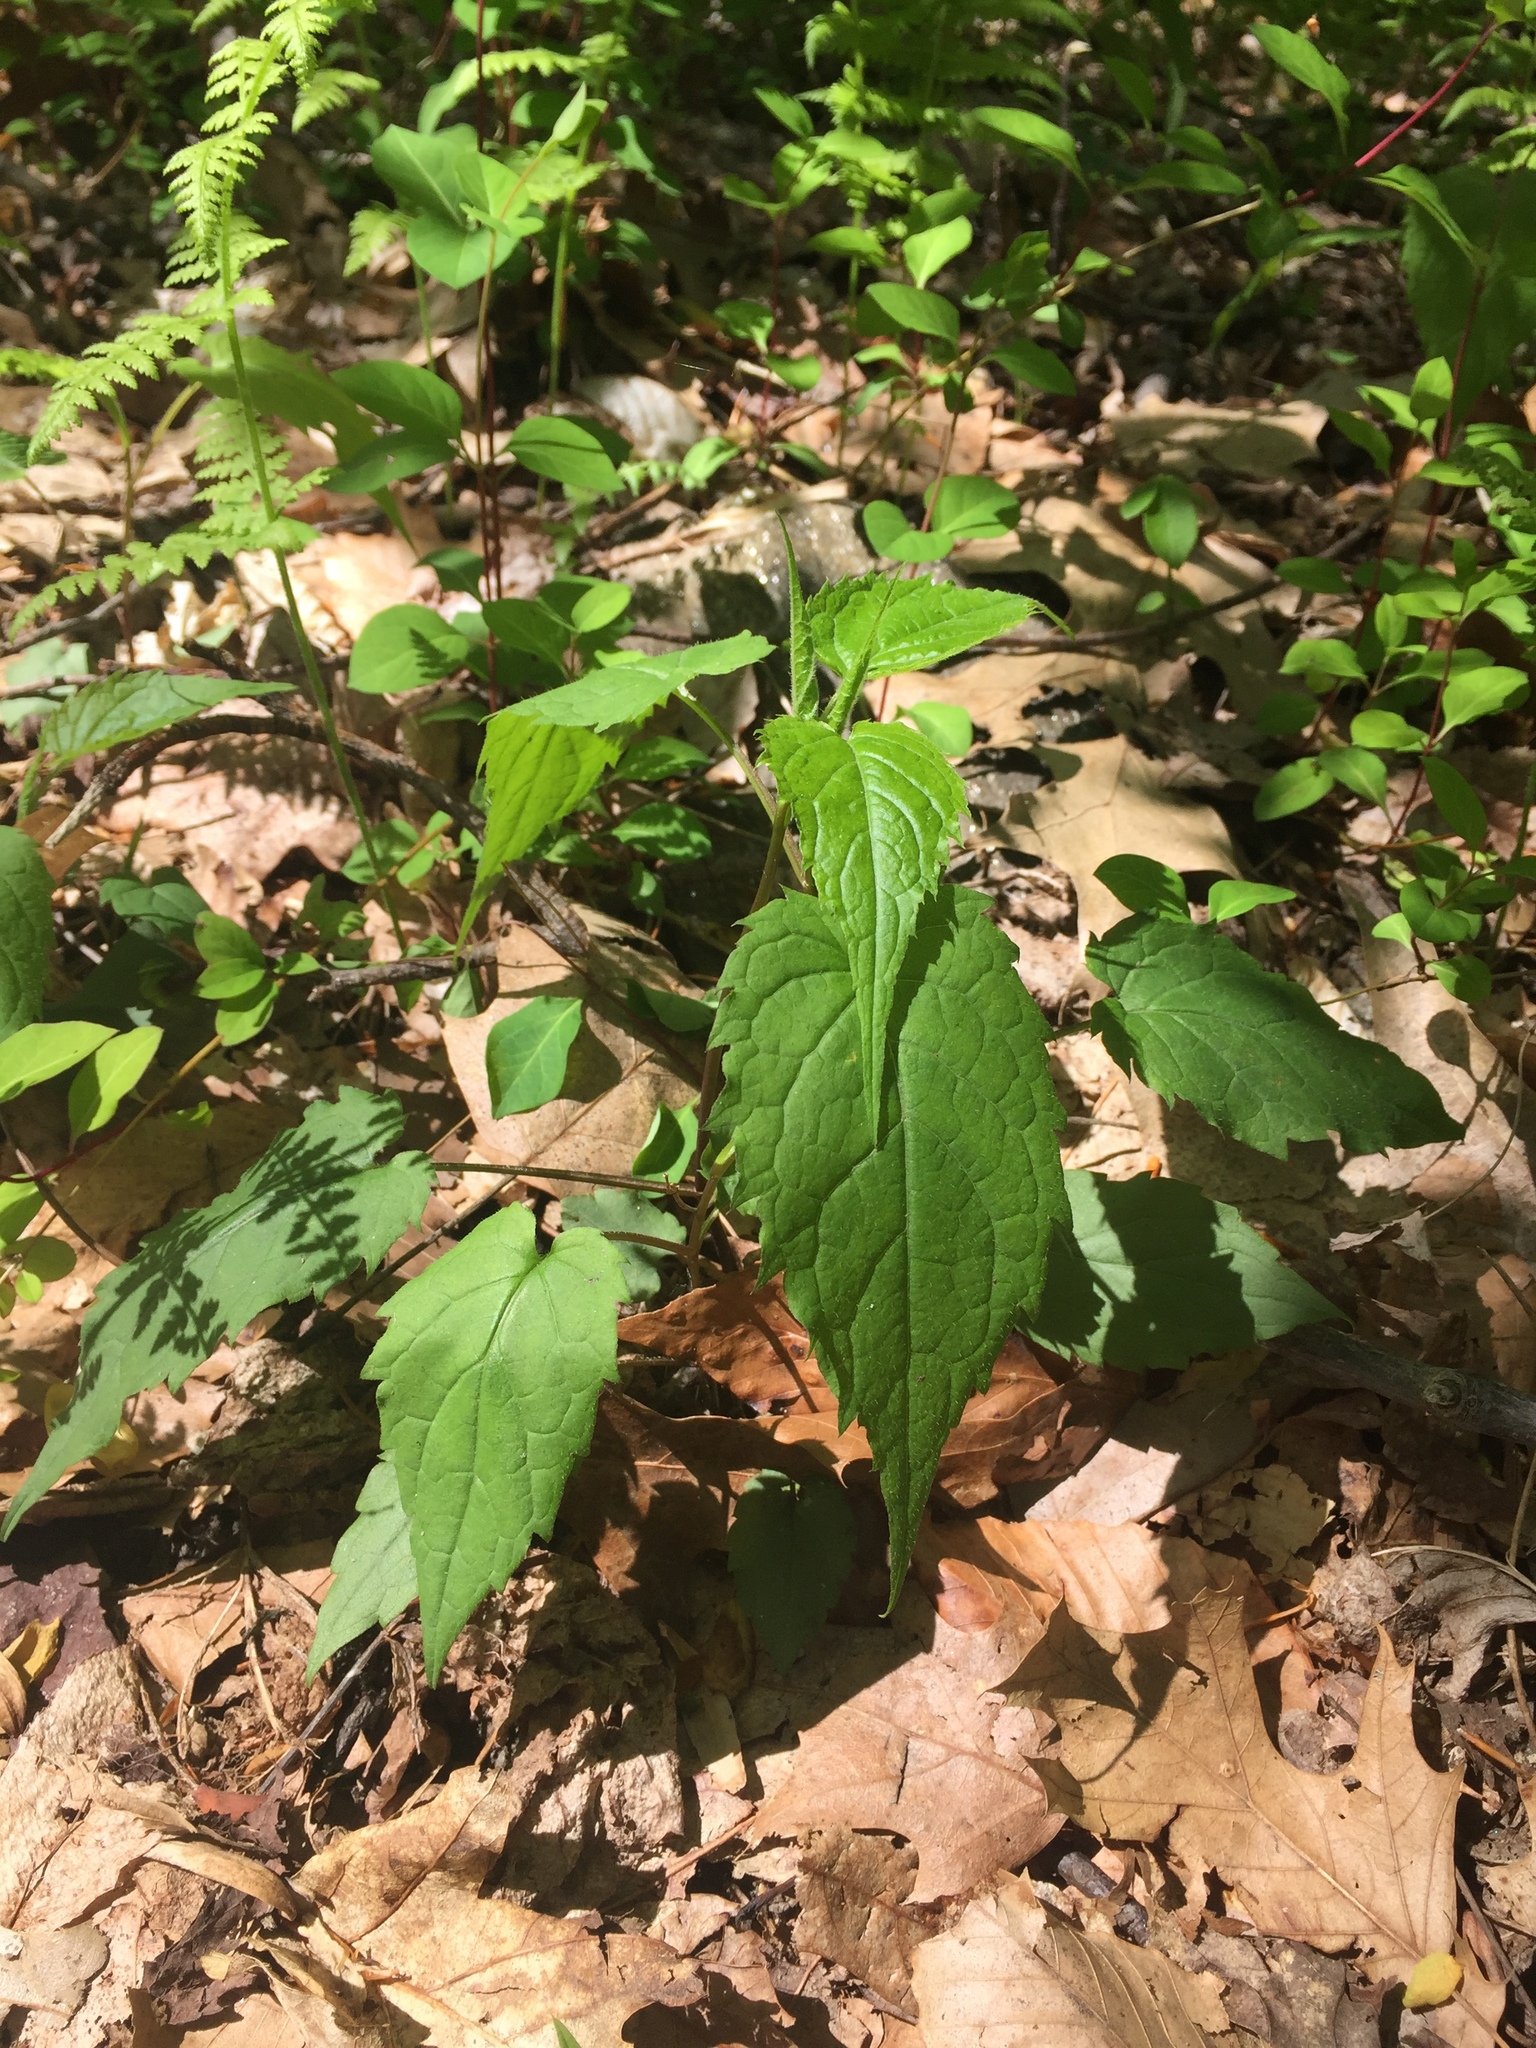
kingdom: Plantae
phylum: Tracheophyta
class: Magnoliopsida
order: Asterales
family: Asteraceae
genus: Eurybia
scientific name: Eurybia divaricata
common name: White wood aster
